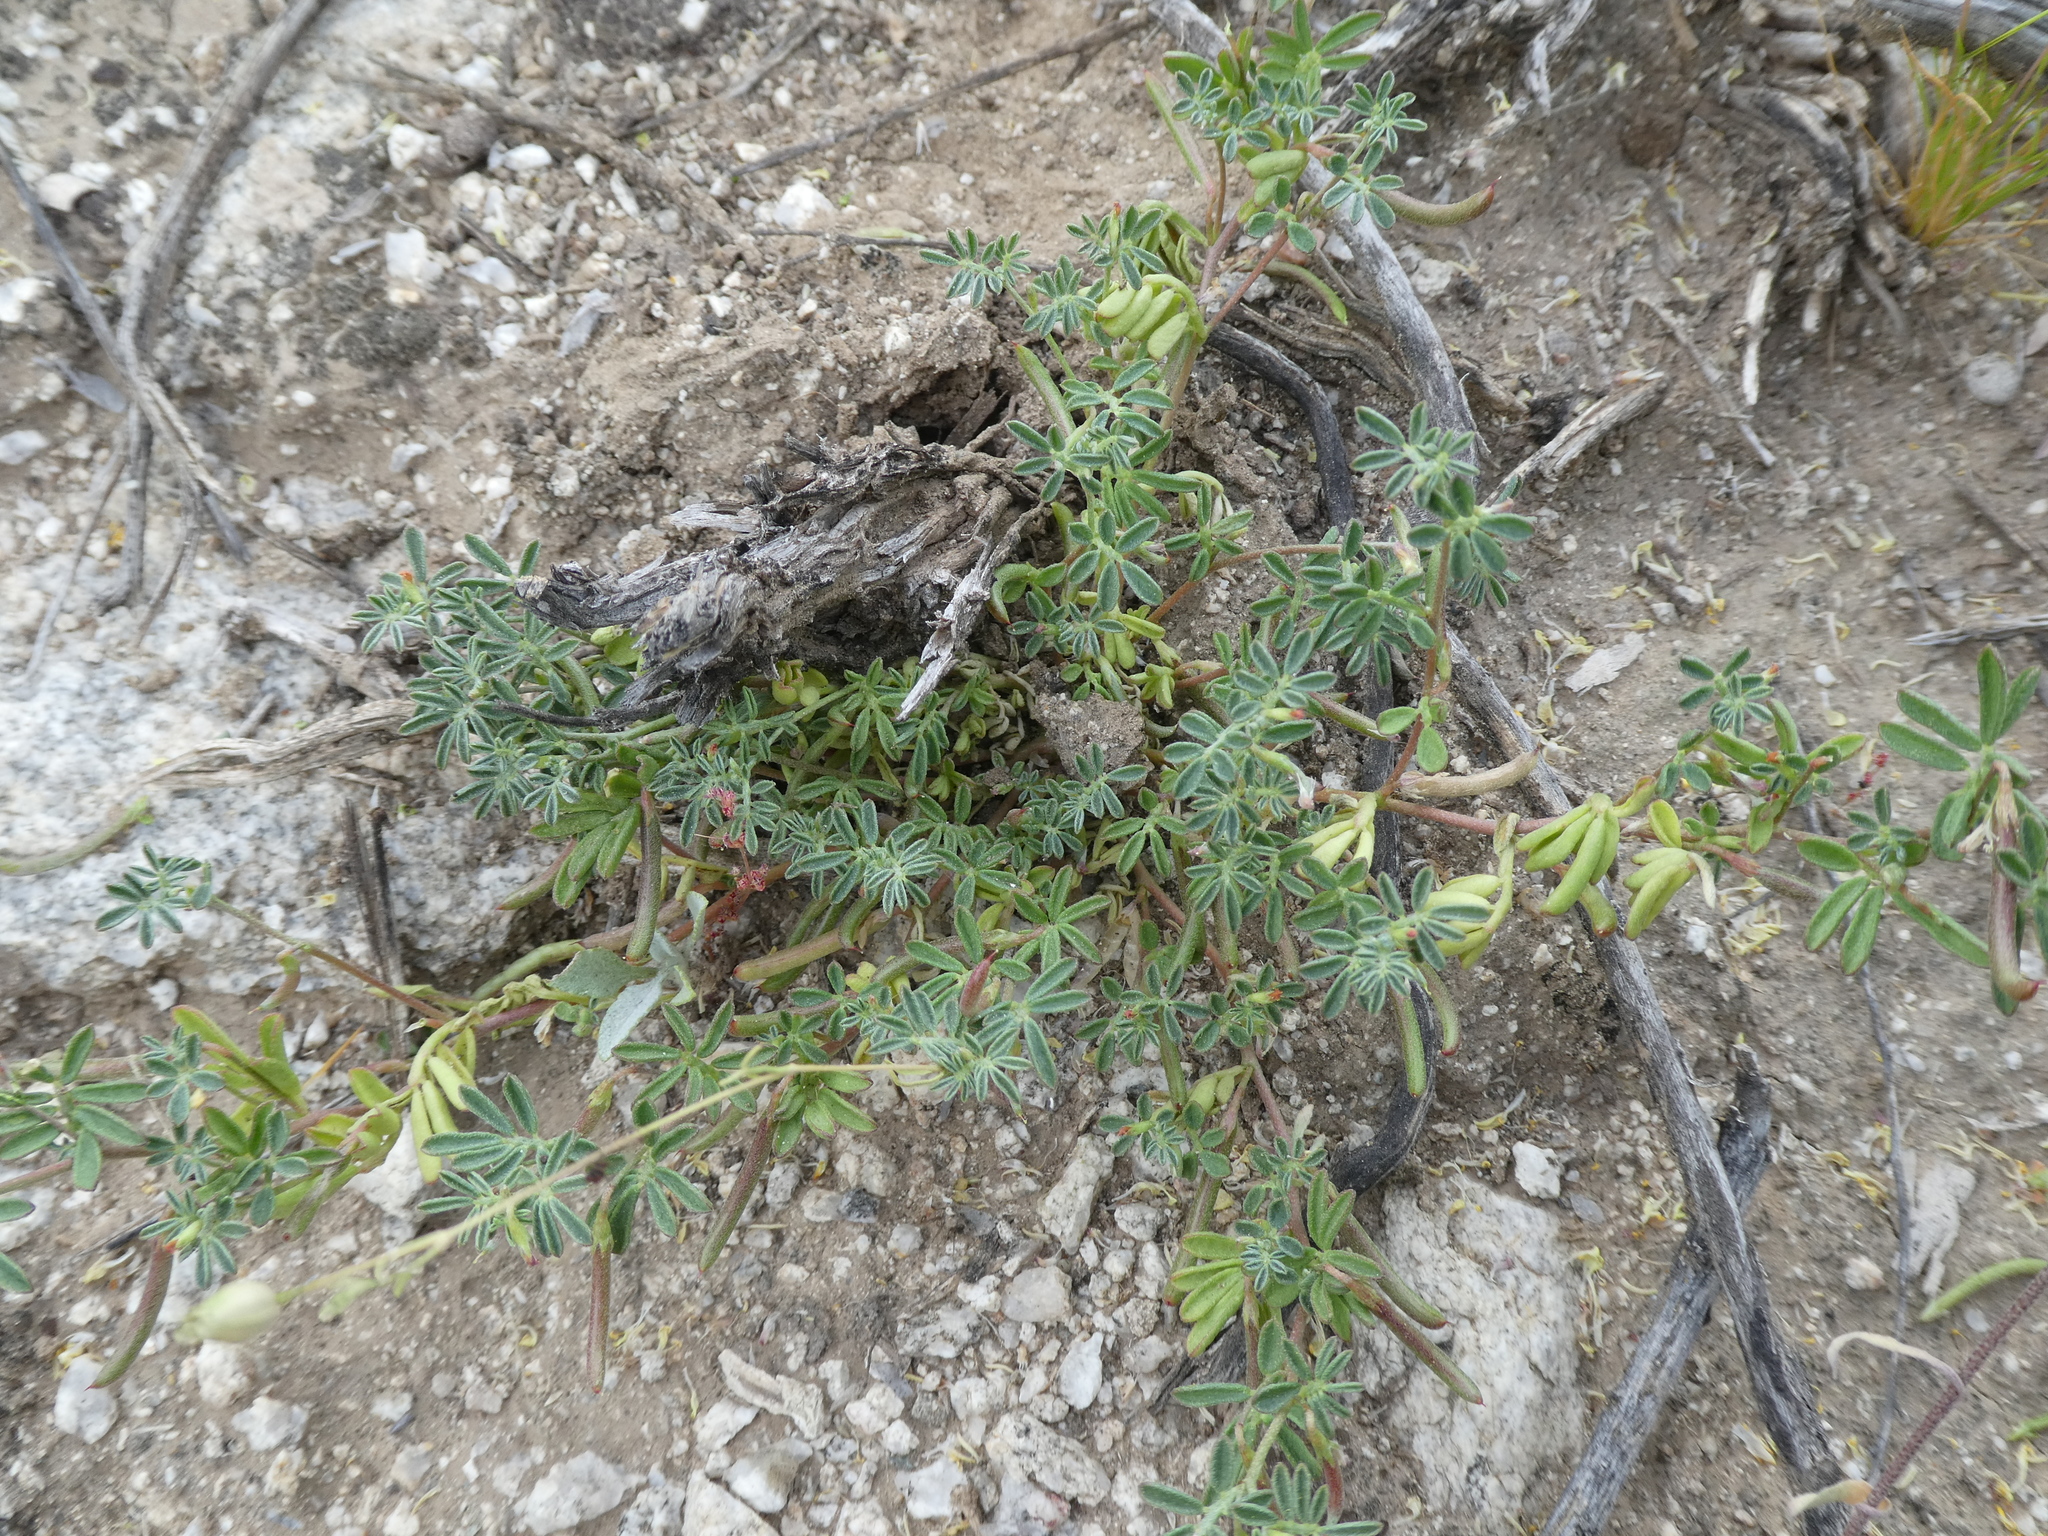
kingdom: Plantae
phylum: Tracheophyta
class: Magnoliopsida
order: Fabales
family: Fabaceae
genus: Acmispon
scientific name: Acmispon strigosus
